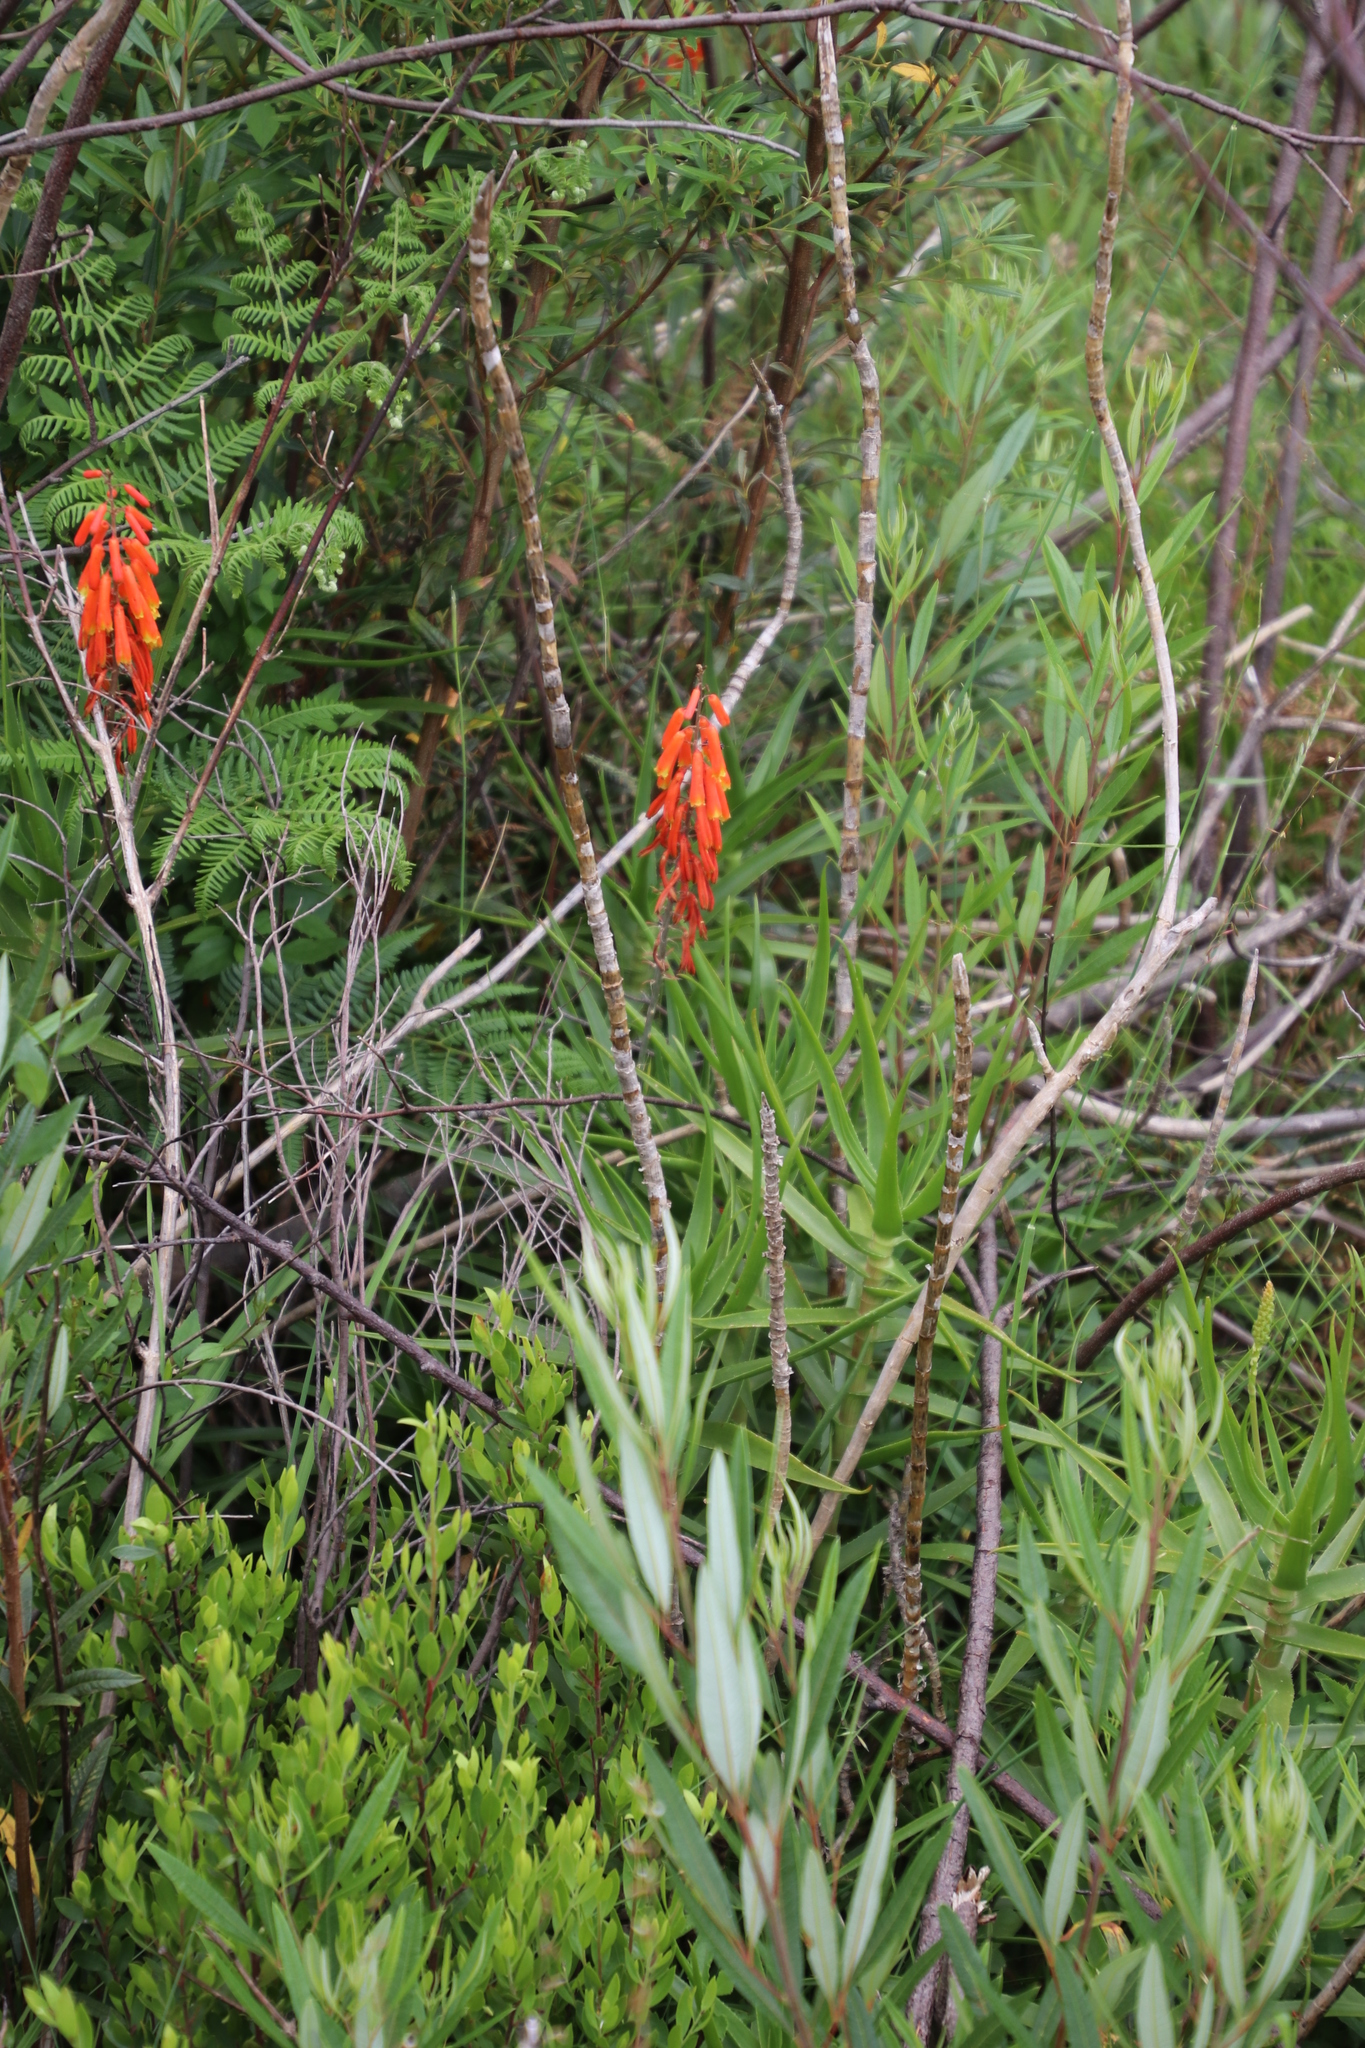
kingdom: Plantae
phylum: Tracheophyta
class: Liliopsida
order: Asparagales
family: Asphodelaceae
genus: Aloiampelos
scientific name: Aloiampelos ciliaris
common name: Climbing aloe
